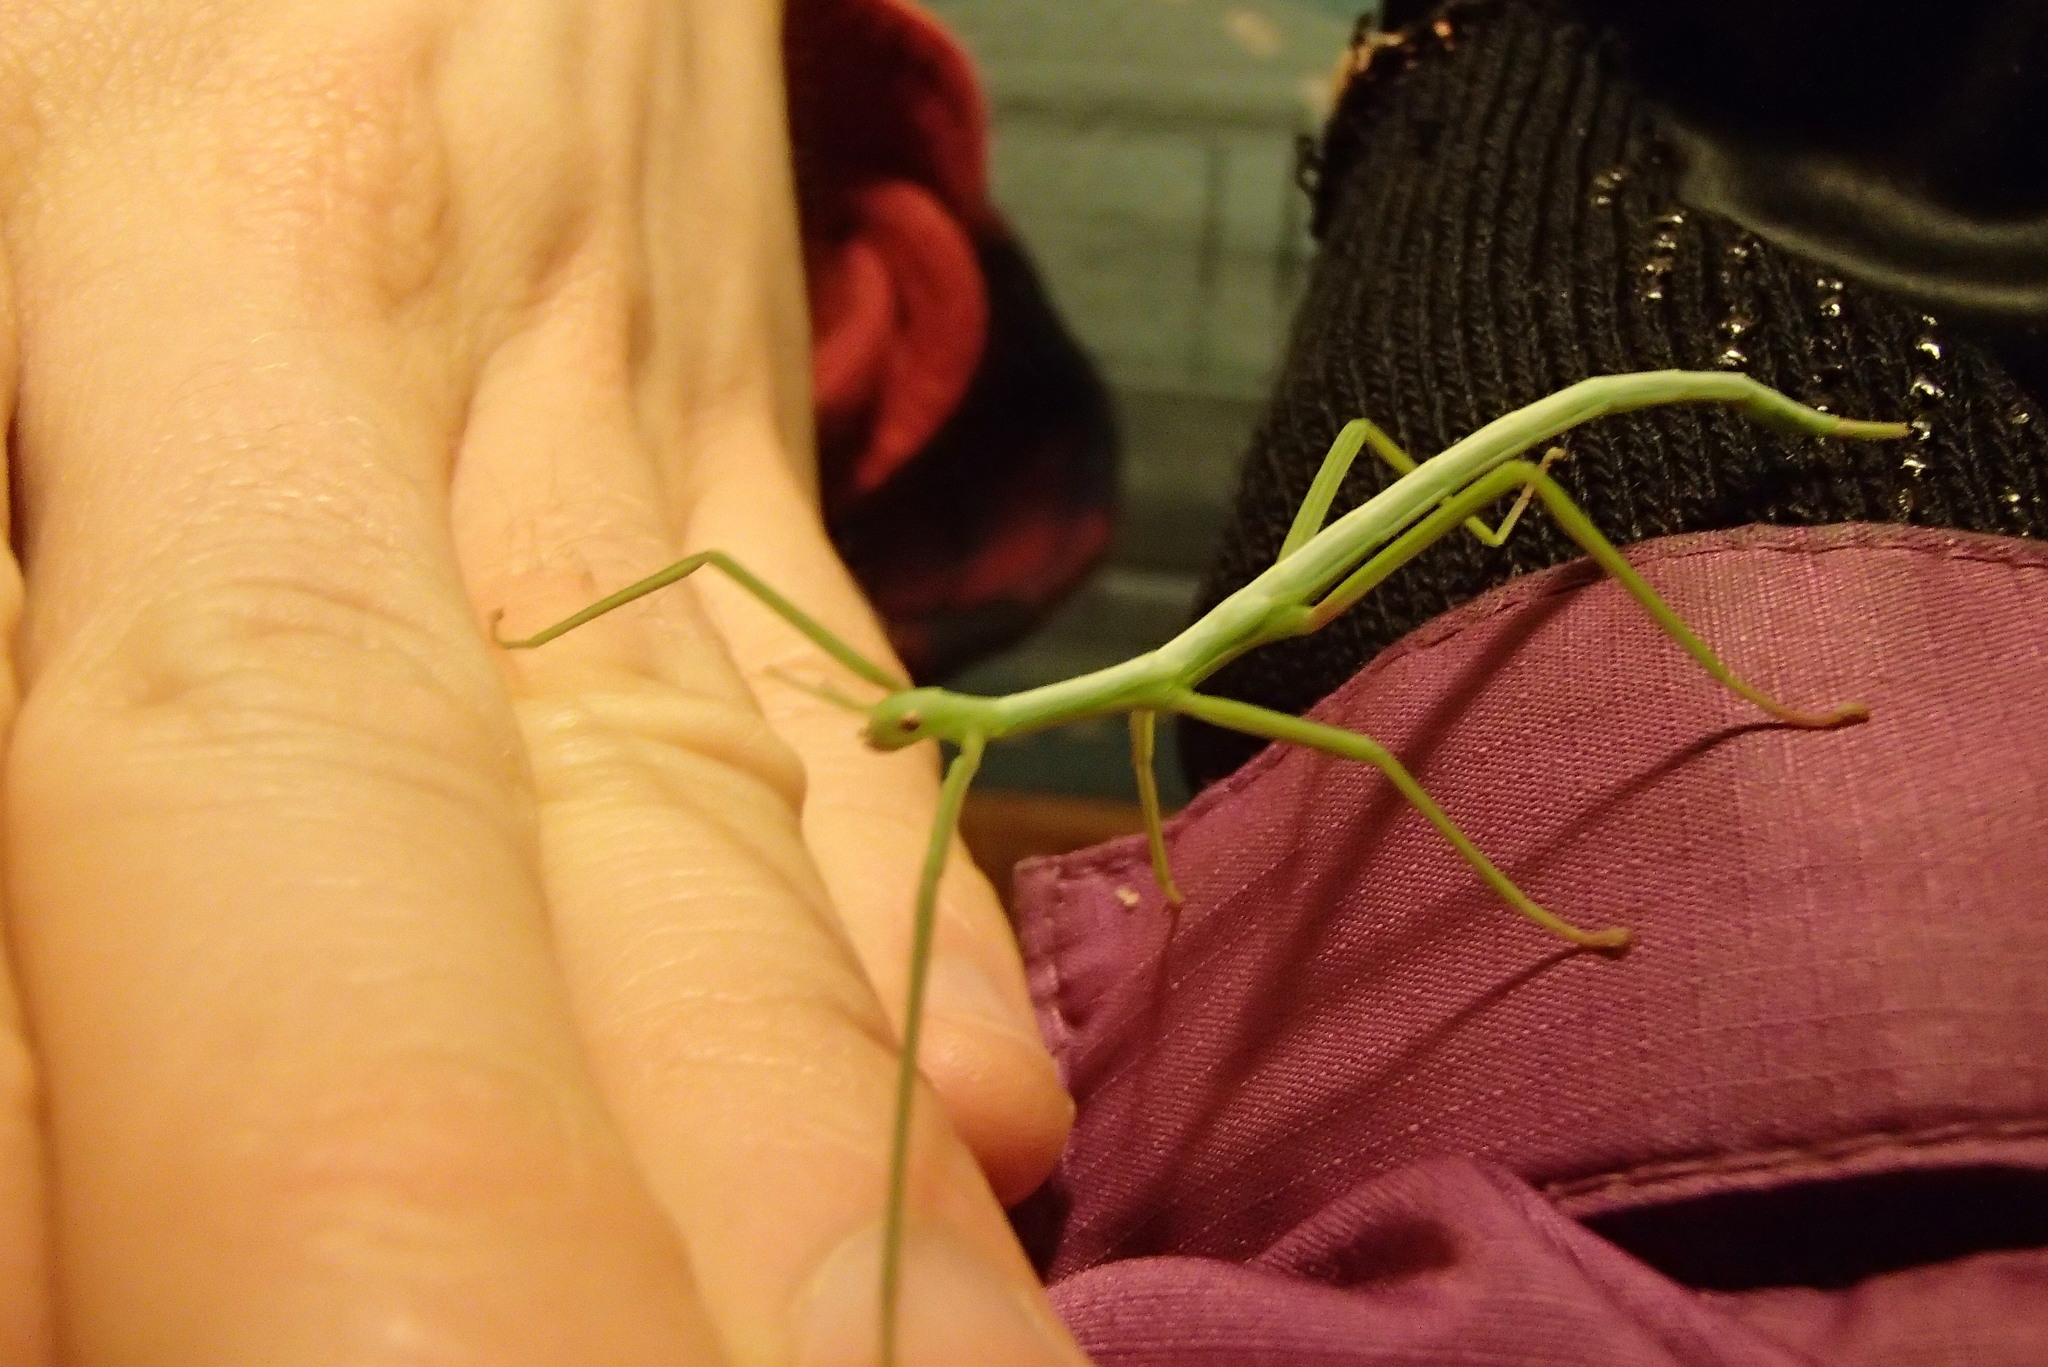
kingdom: Animalia
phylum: Arthropoda
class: Insecta
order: Phasmida
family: Phasmatidae
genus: Didymuria
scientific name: Didymuria violescens
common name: Spur-legged stick-insect
